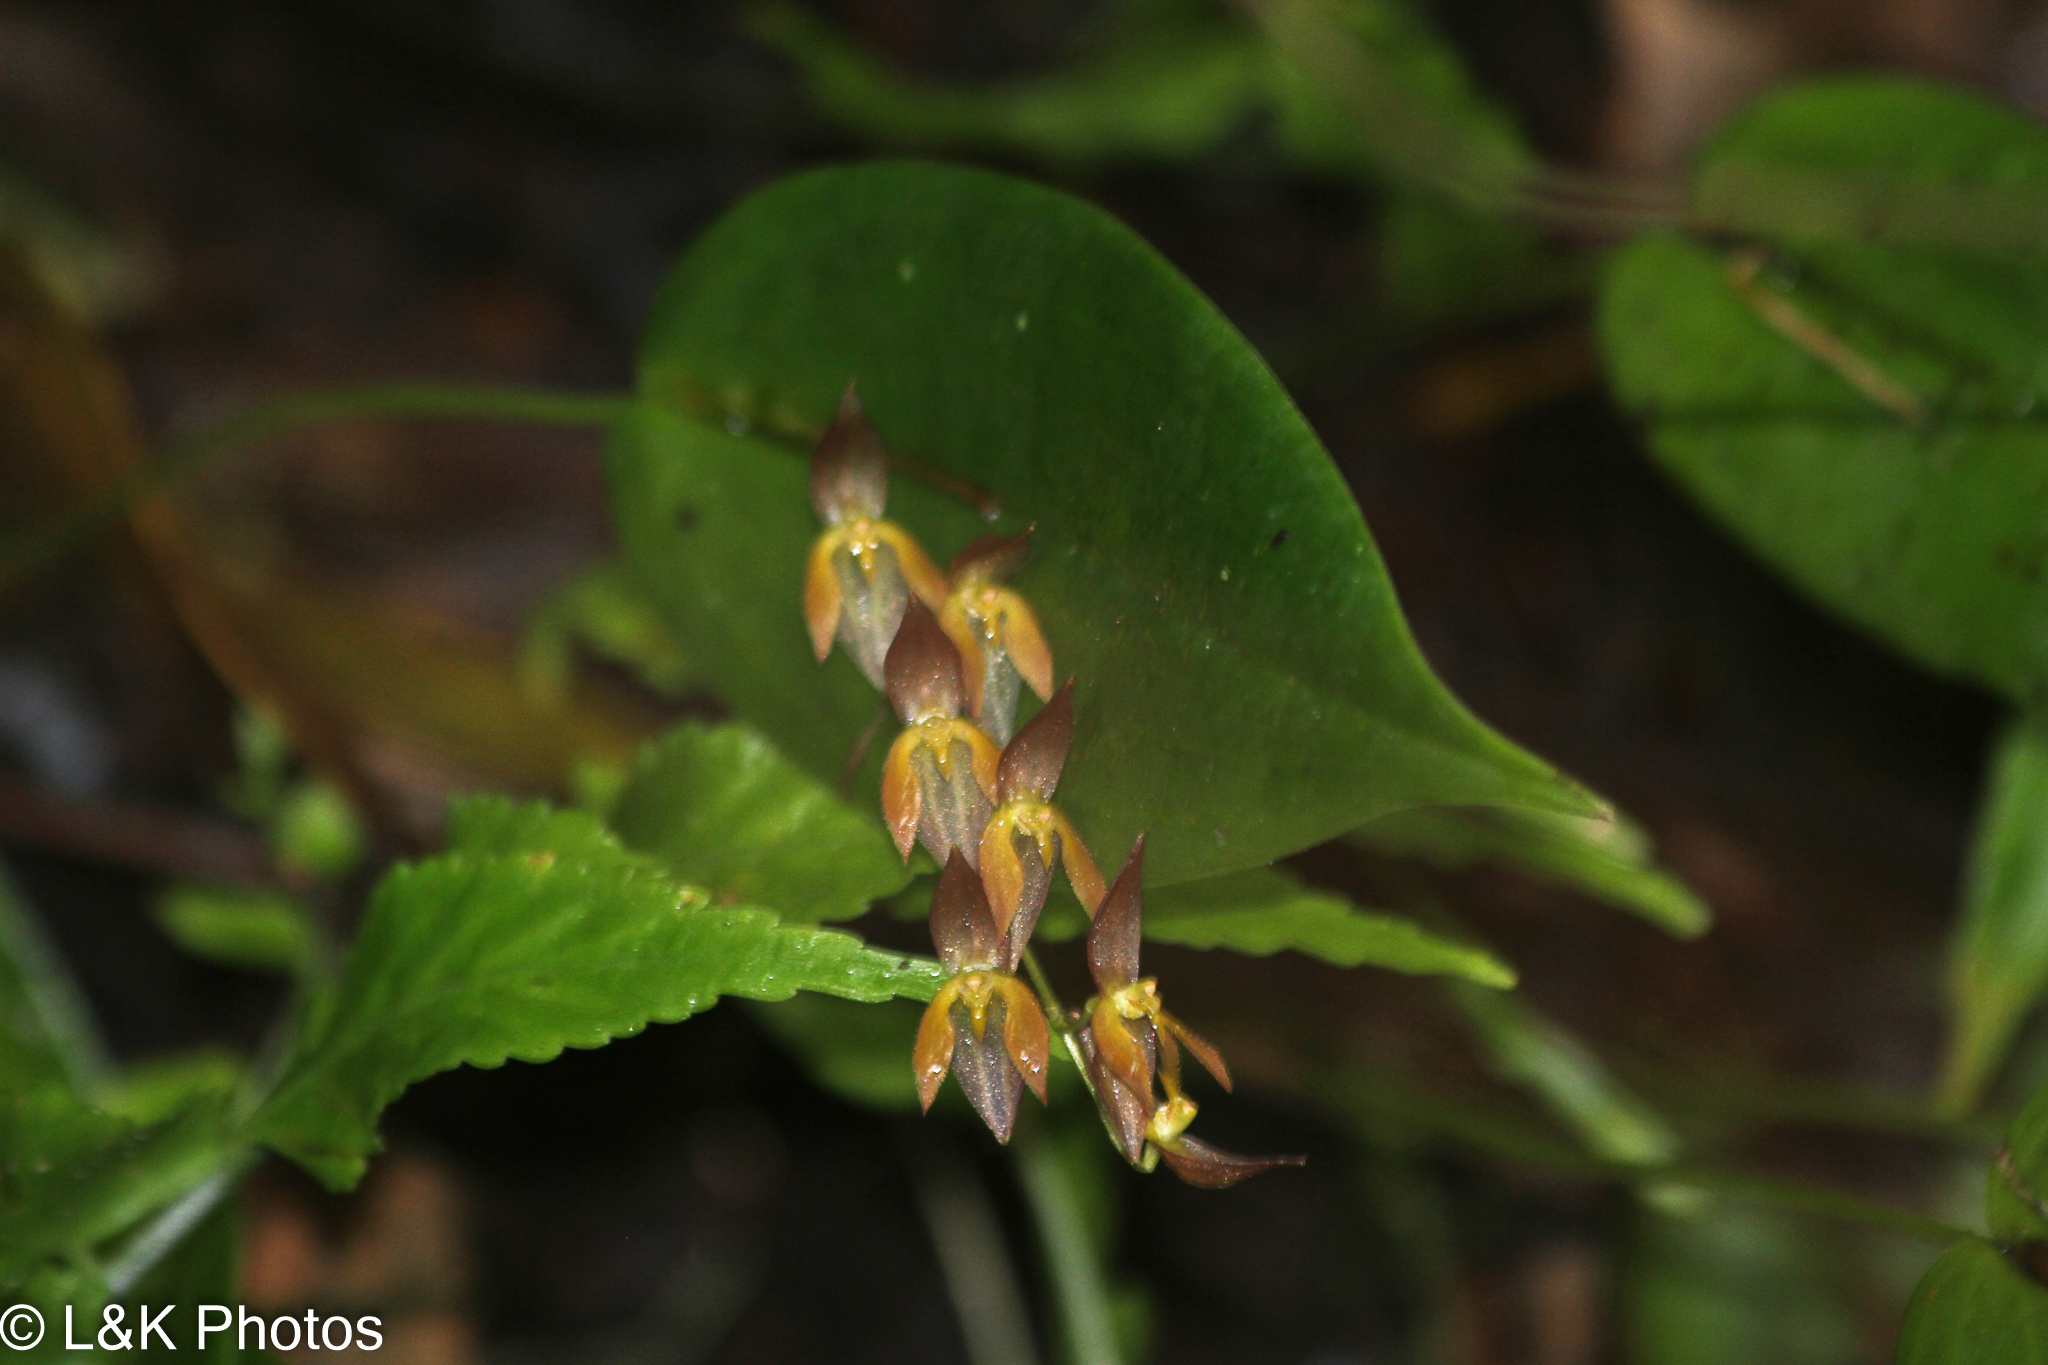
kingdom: Plantae
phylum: Tracheophyta
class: Liliopsida
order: Asparagales
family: Orchidaceae
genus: Pleurothallis
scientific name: Pleurothallis rowleei
